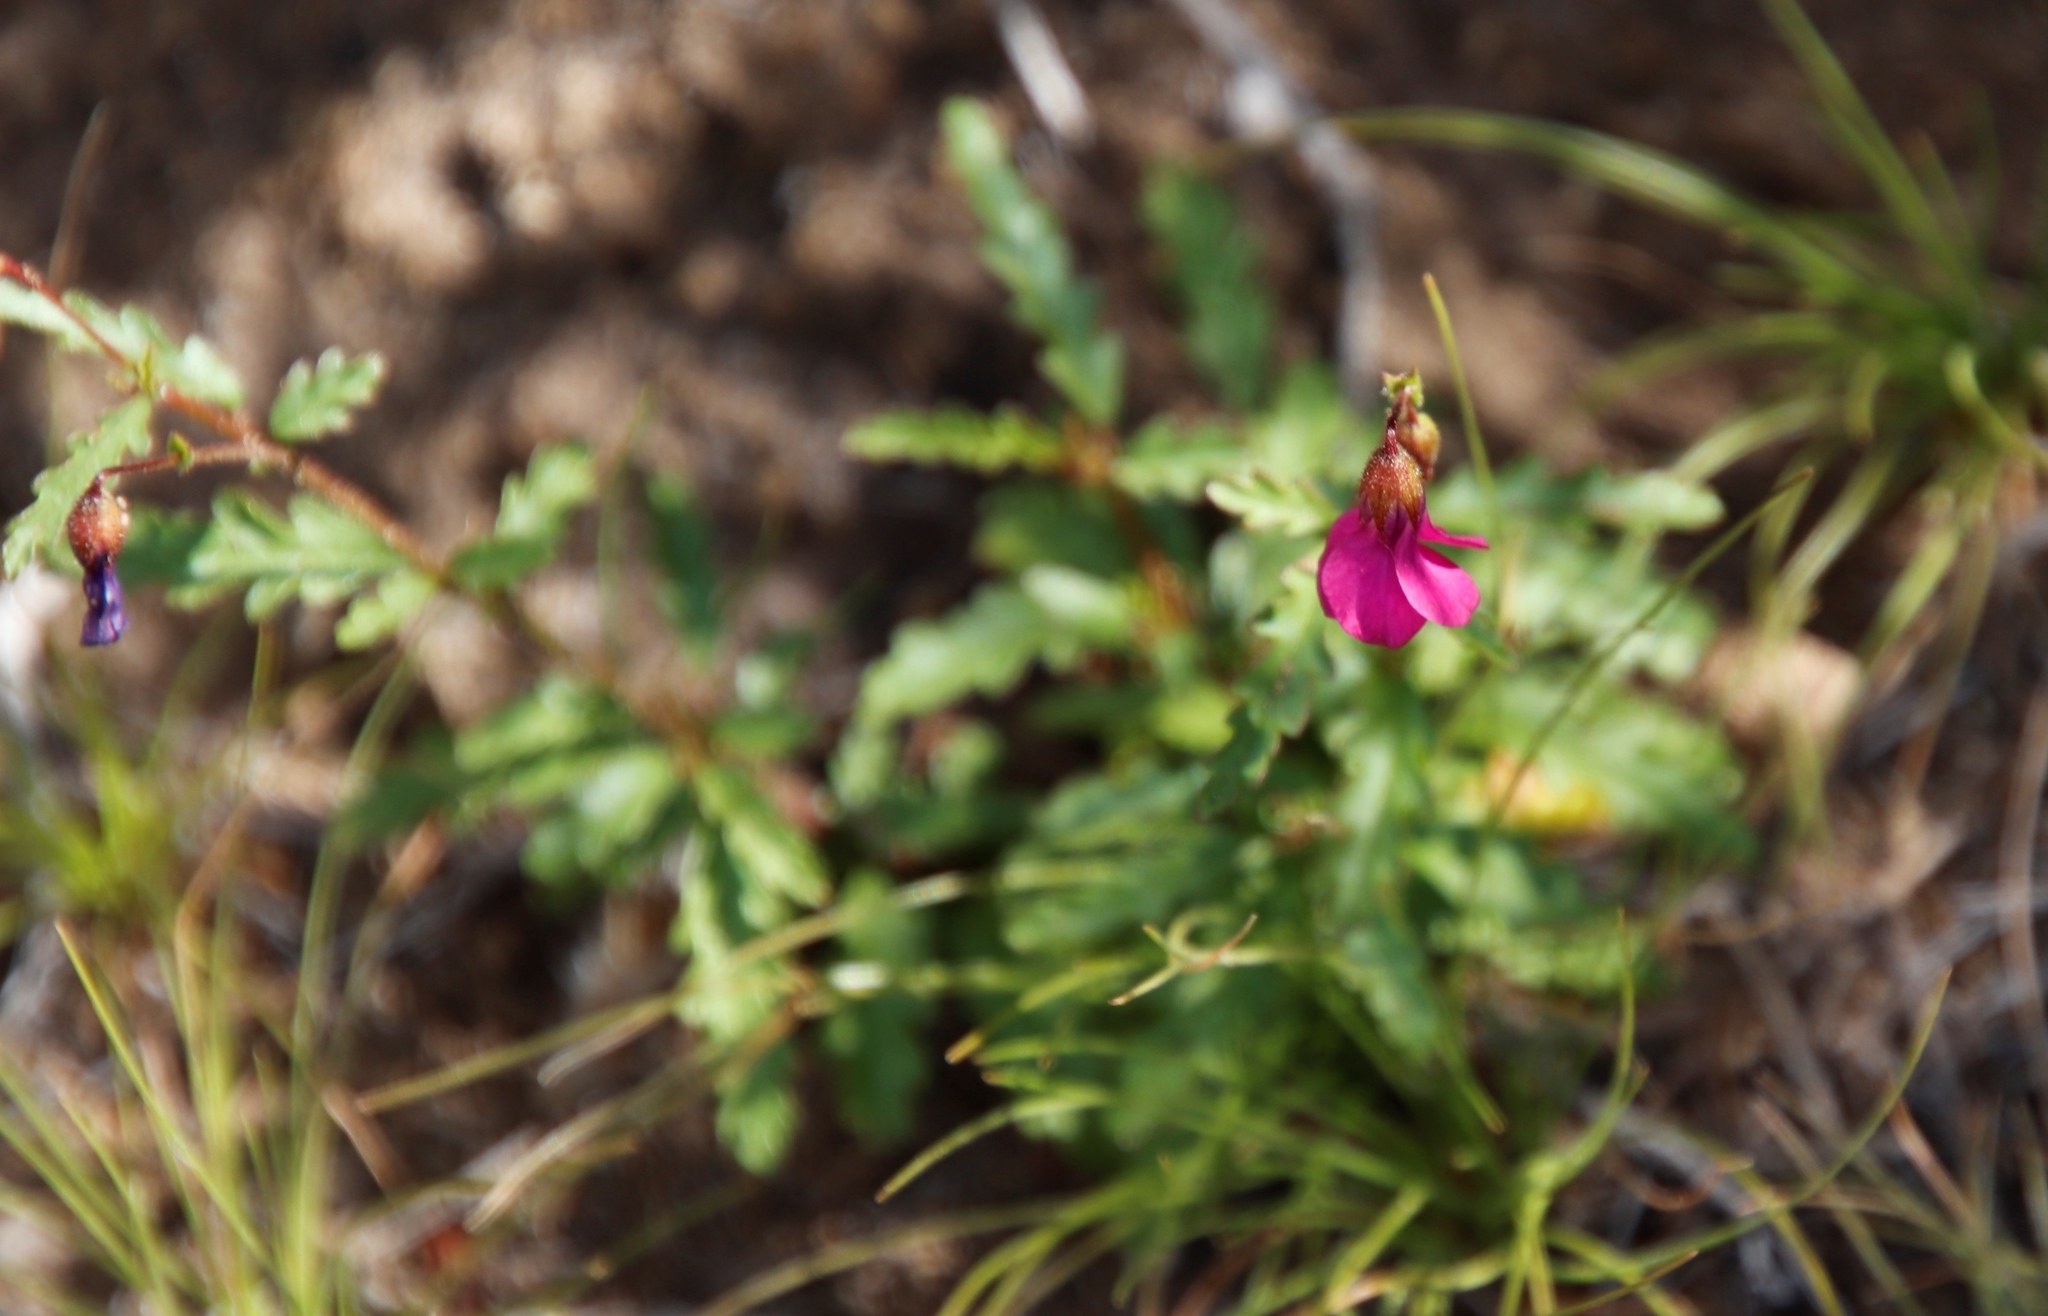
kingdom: Plantae
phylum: Tracheophyta
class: Magnoliopsida
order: Malvales
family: Malvaceae
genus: Hermannia
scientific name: Hermannia coccocarpa
